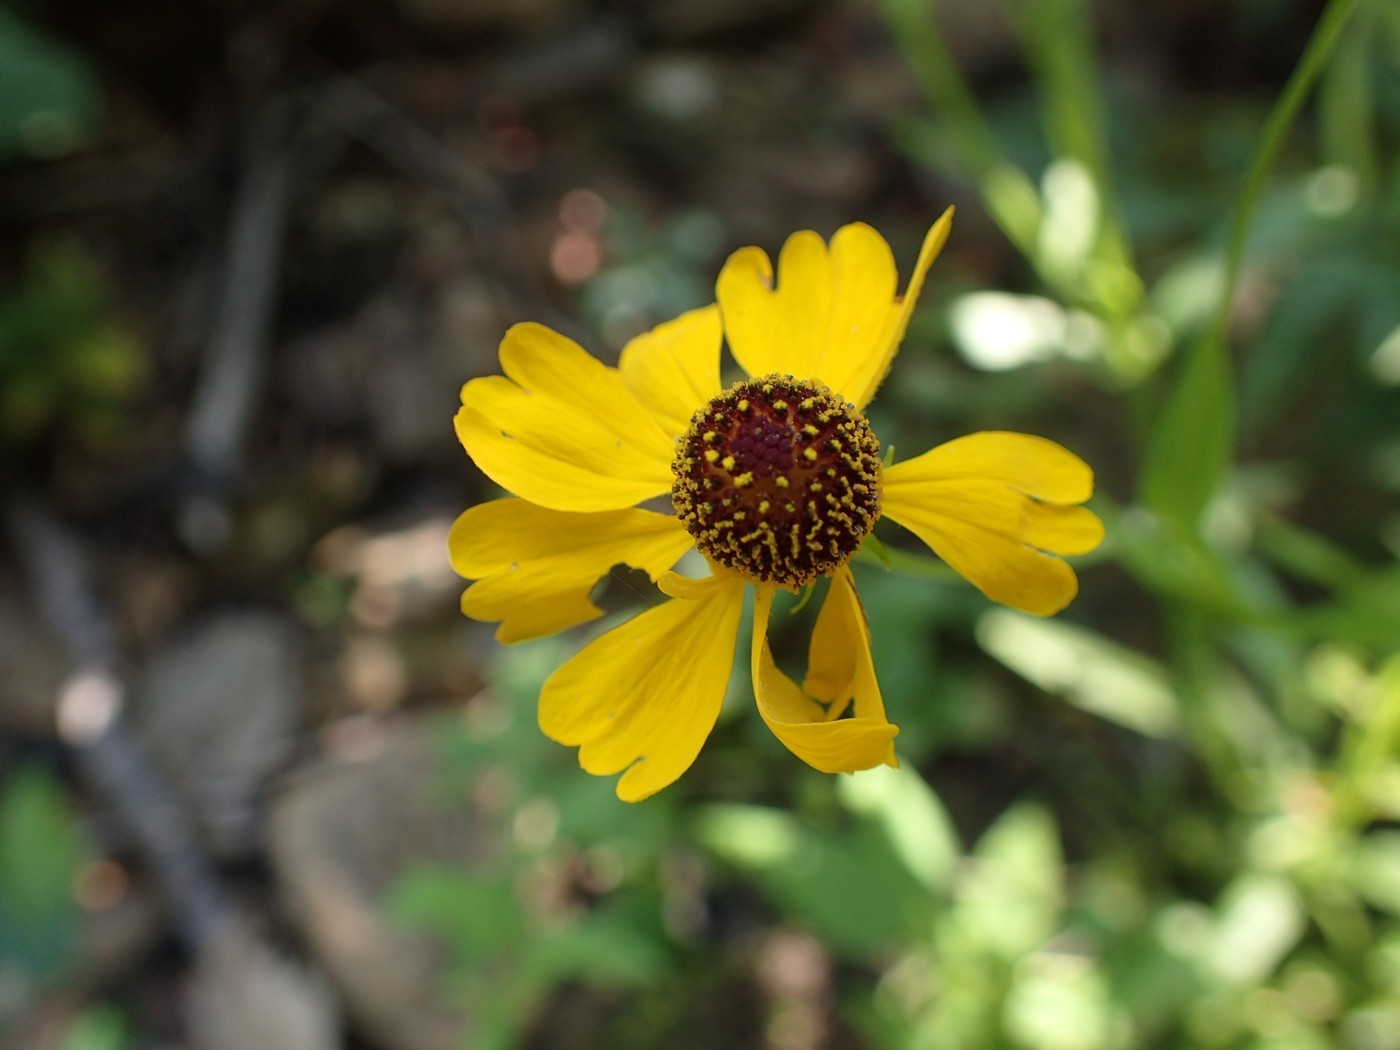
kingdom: Plantae
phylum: Tracheophyta
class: Magnoliopsida
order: Asterales
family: Asteraceae
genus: Helenium
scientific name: Helenium flexuosum
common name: Naked-flowered sneezeweed
